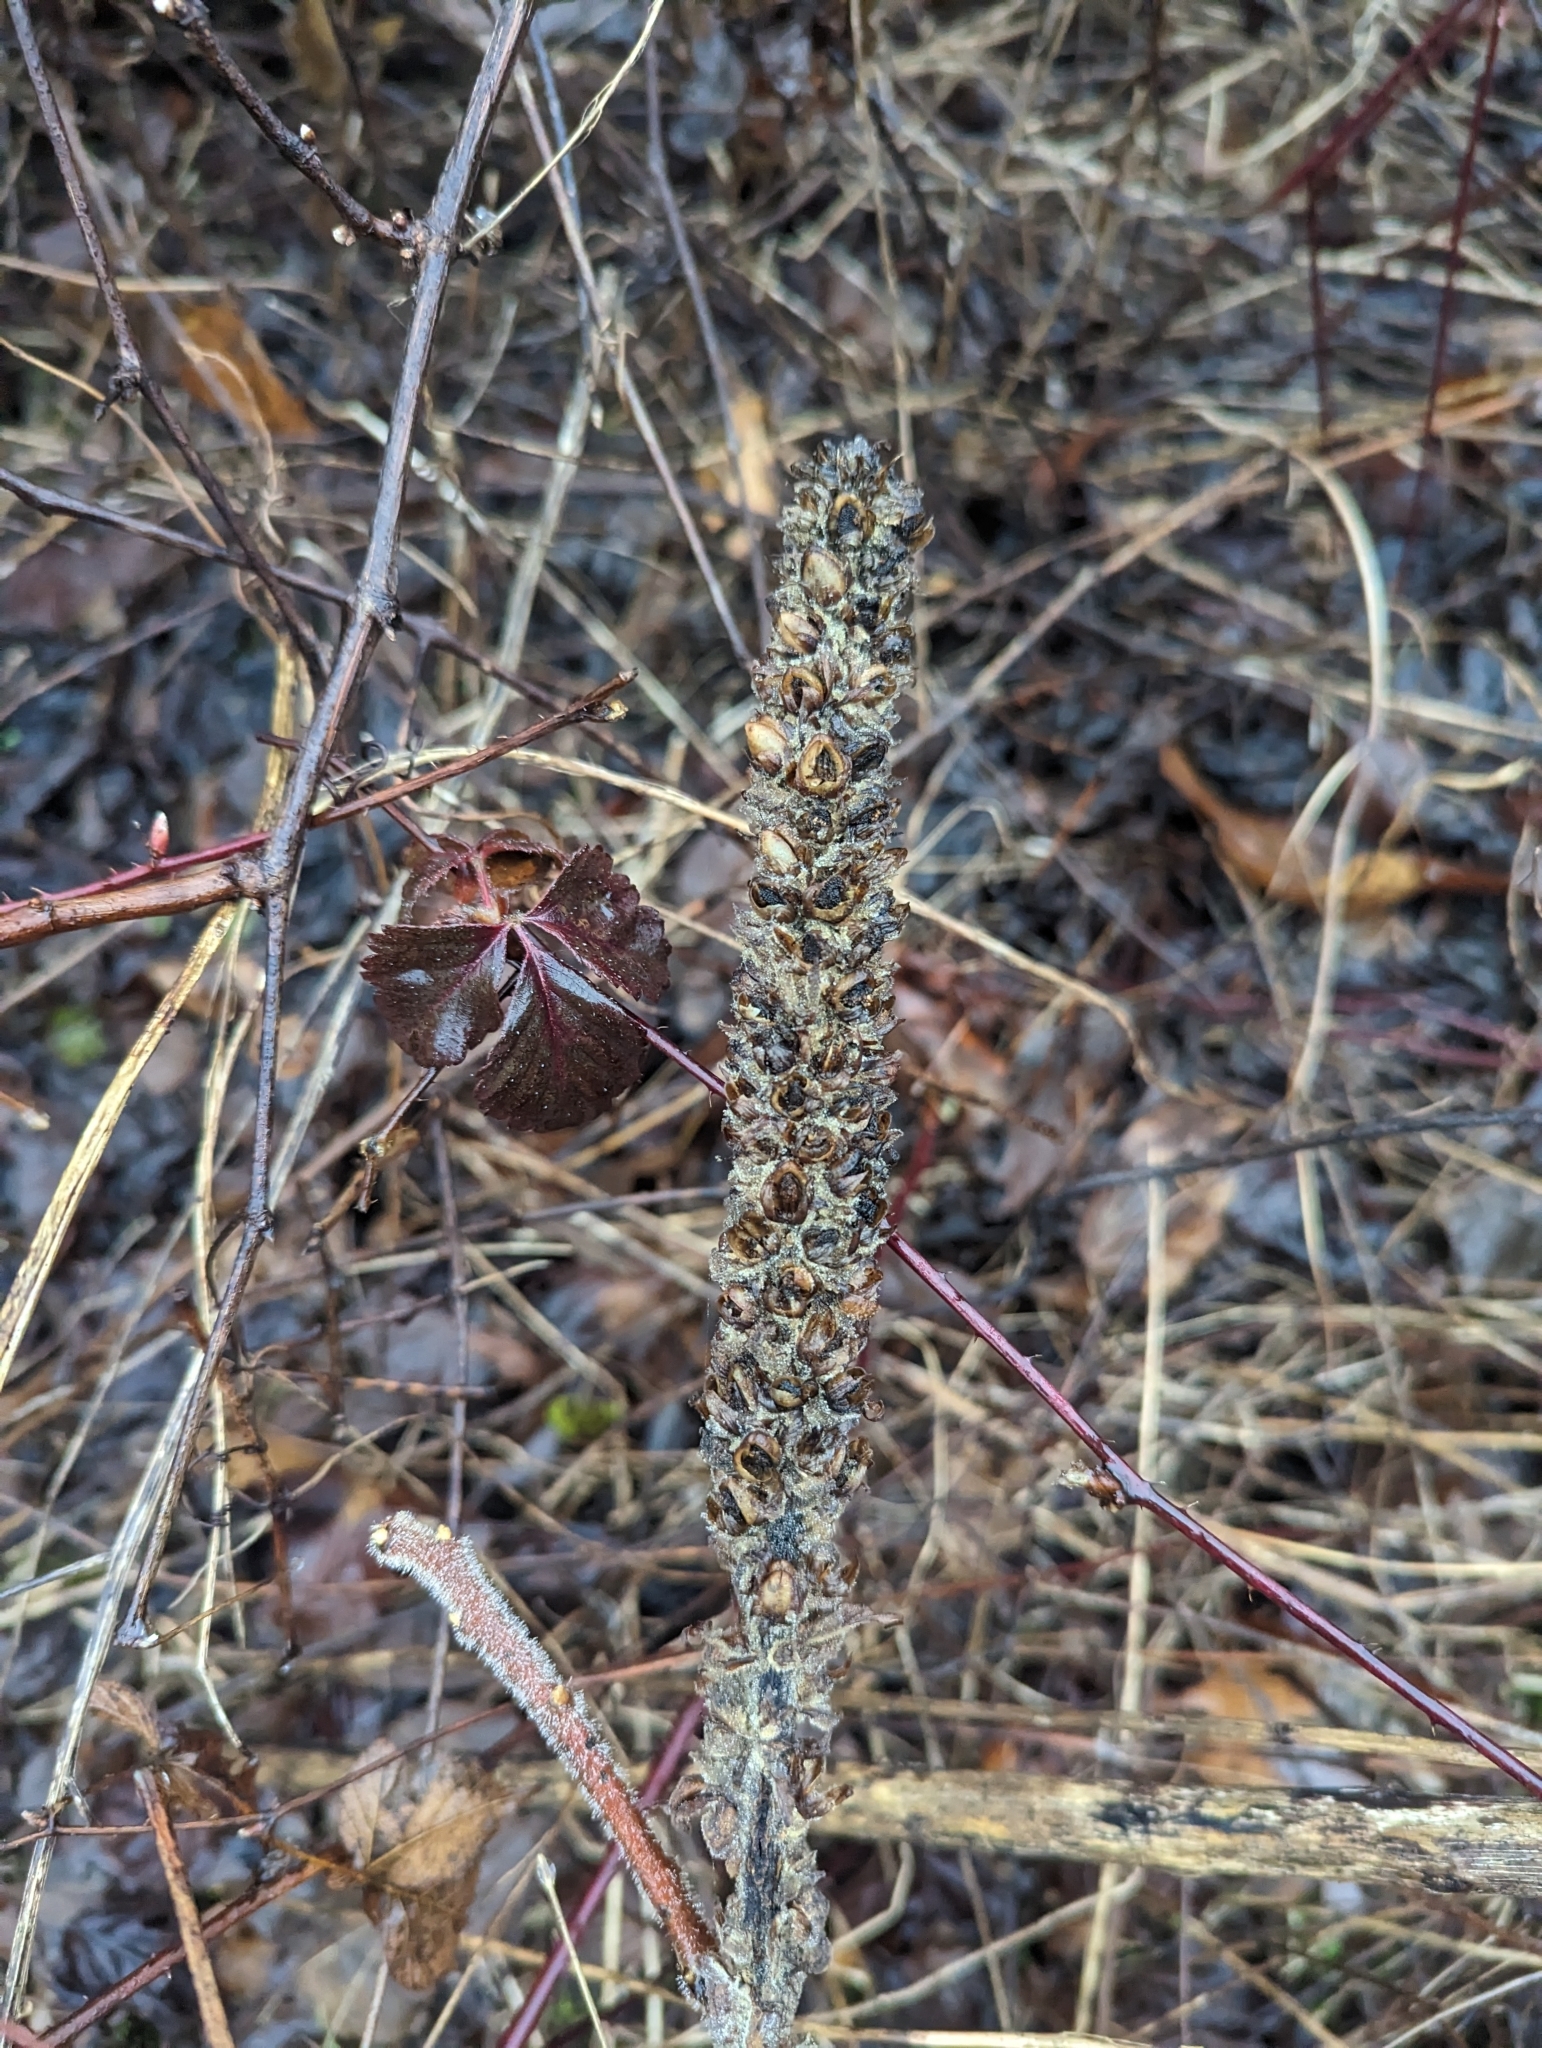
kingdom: Plantae
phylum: Tracheophyta
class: Magnoliopsida
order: Lamiales
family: Scrophulariaceae
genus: Verbascum
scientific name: Verbascum thapsus
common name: Common mullein
